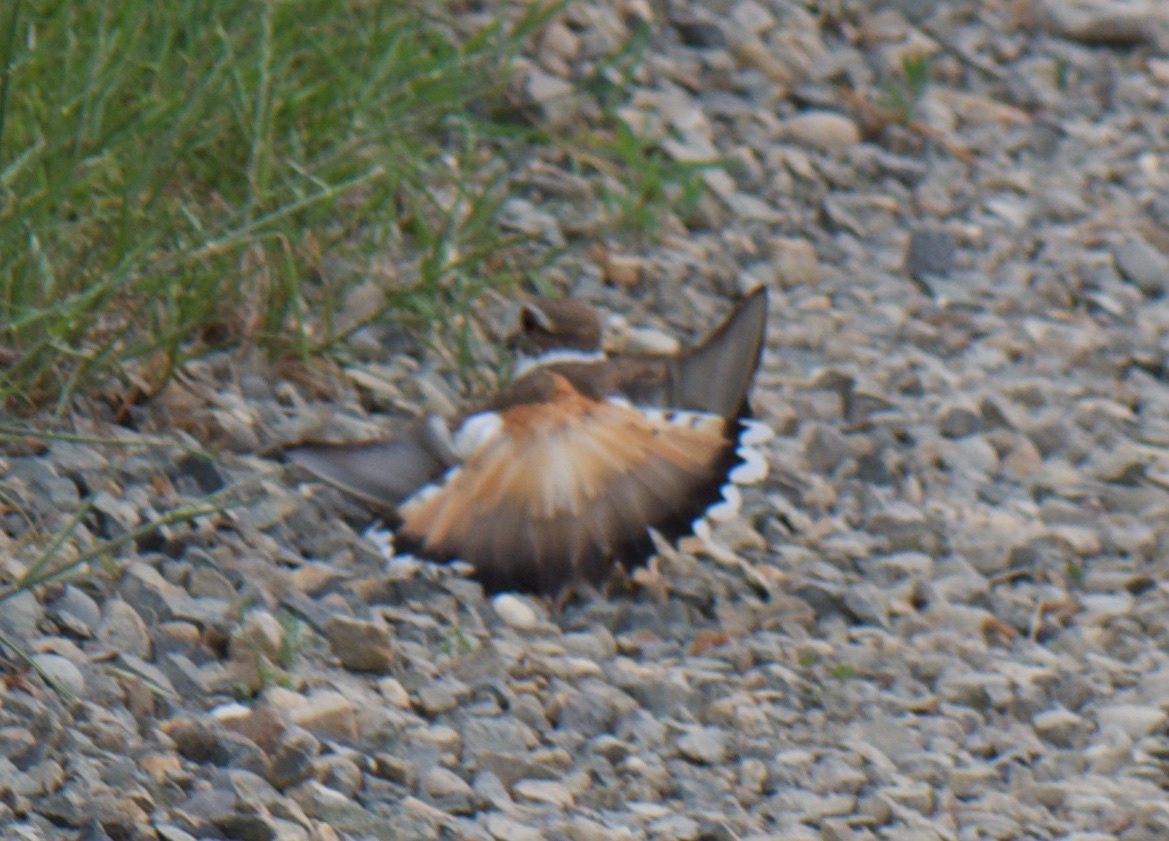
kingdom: Animalia
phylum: Chordata
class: Aves
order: Charadriiformes
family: Charadriidae
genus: Charadrius
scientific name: Charadrius vociferus
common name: Killdeer
